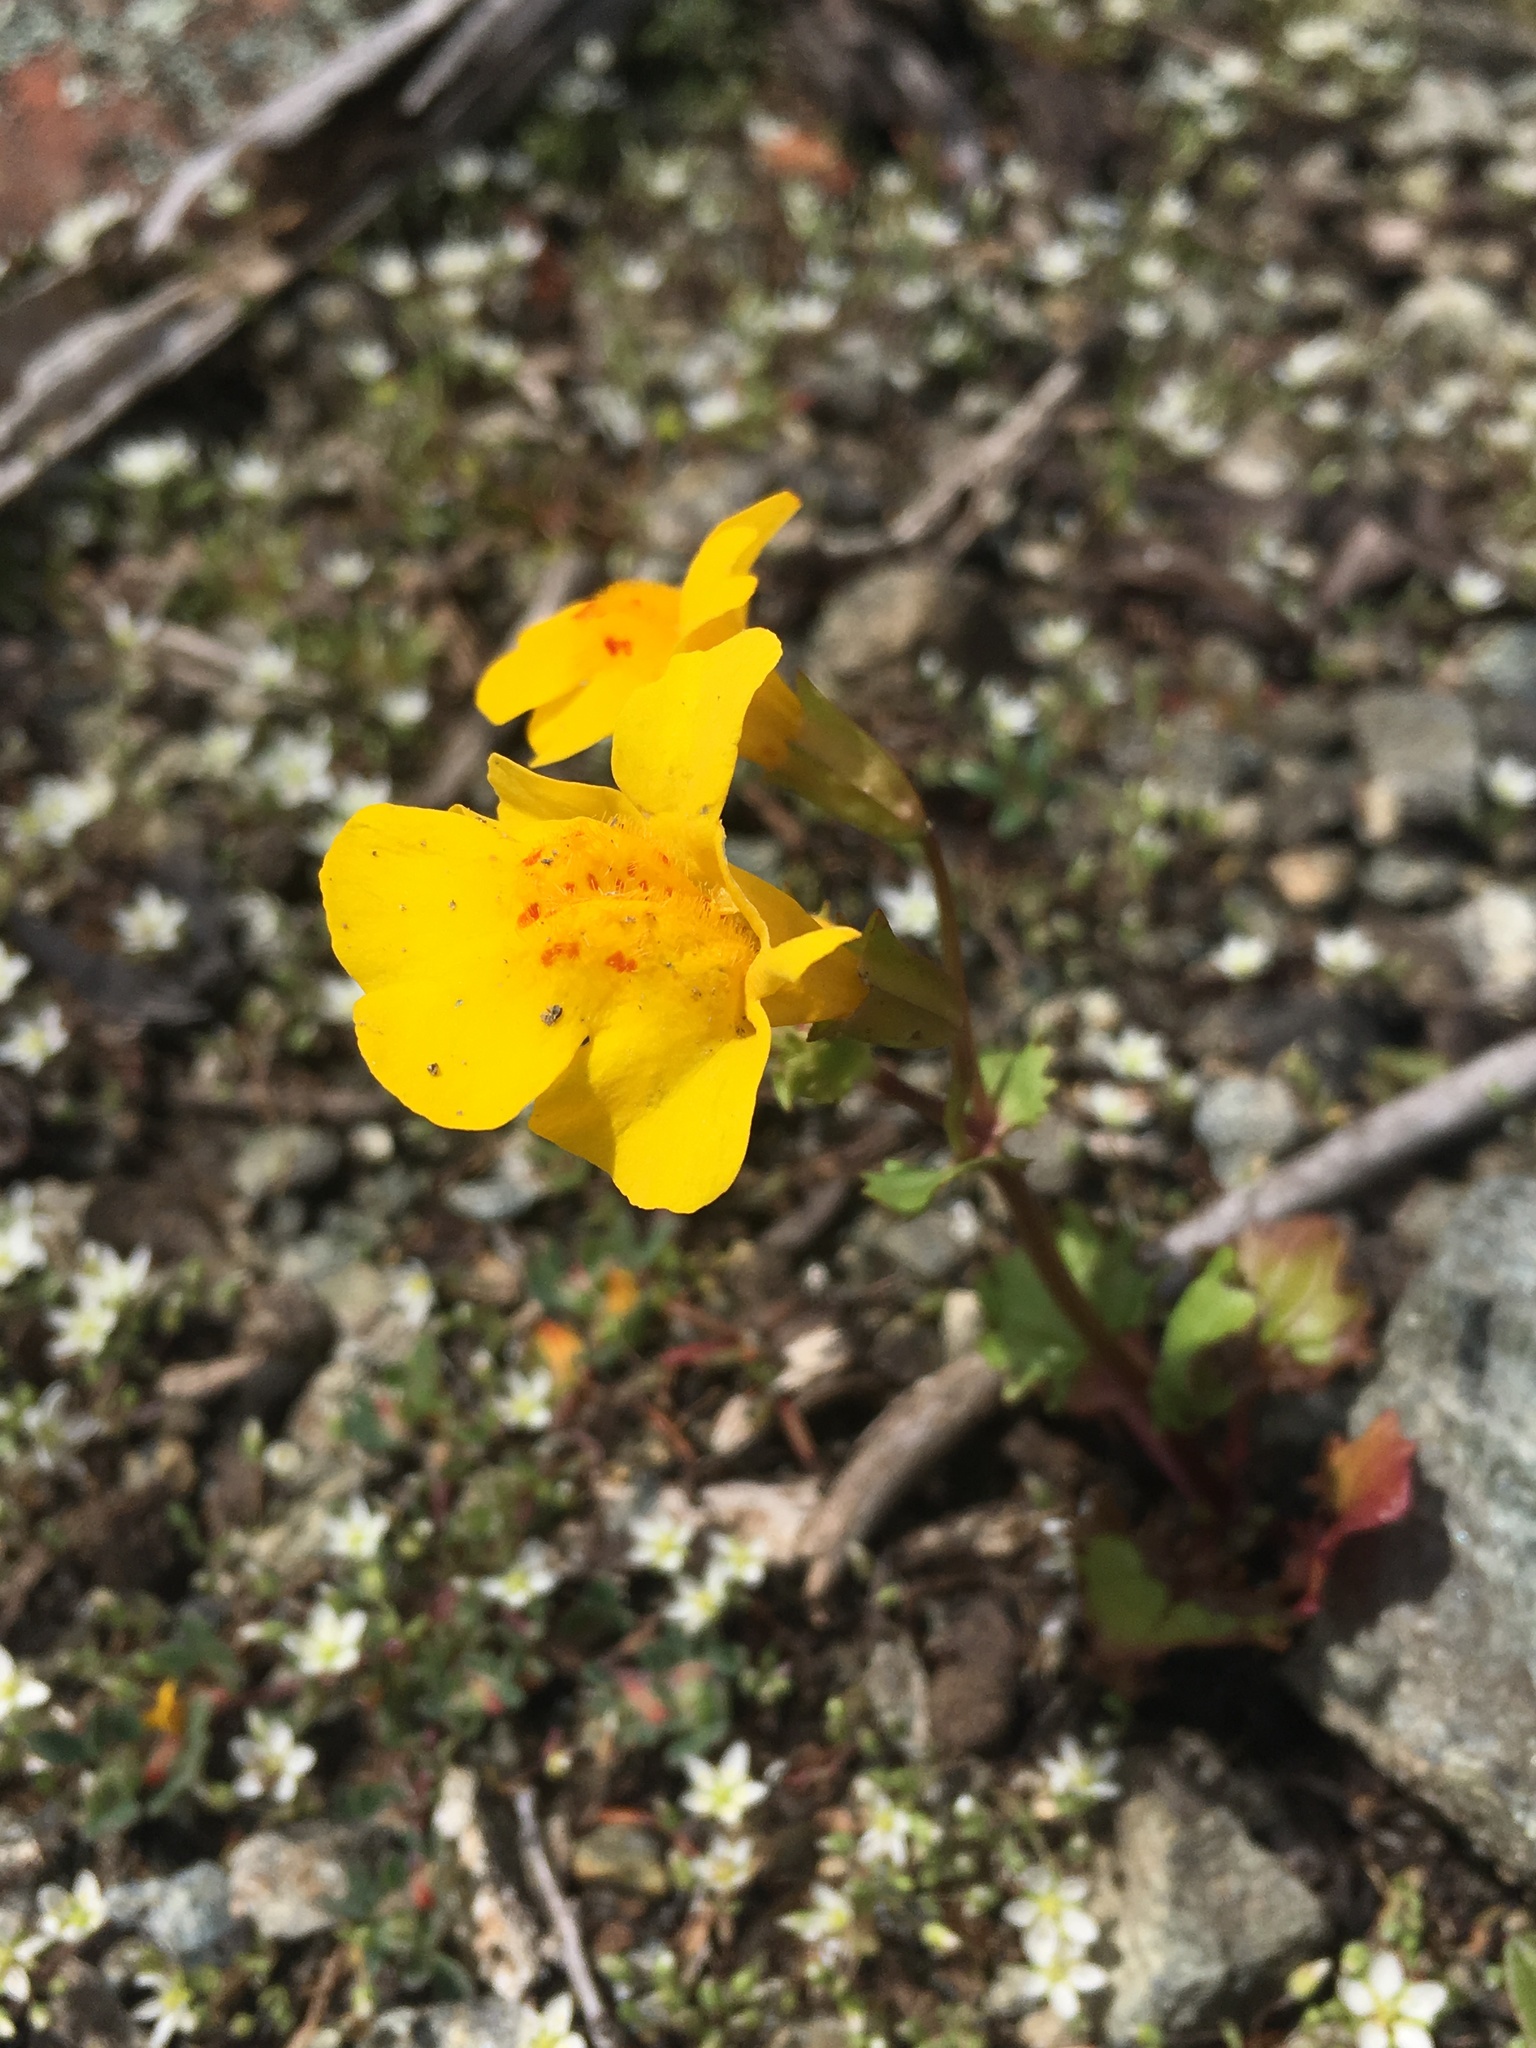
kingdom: Plantae
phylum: Tracheophyta
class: Magnoliopsida
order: Lamiales
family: Phrymaceae
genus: Erythranthe
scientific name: Erythranthe guttata
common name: Monkeyflower
